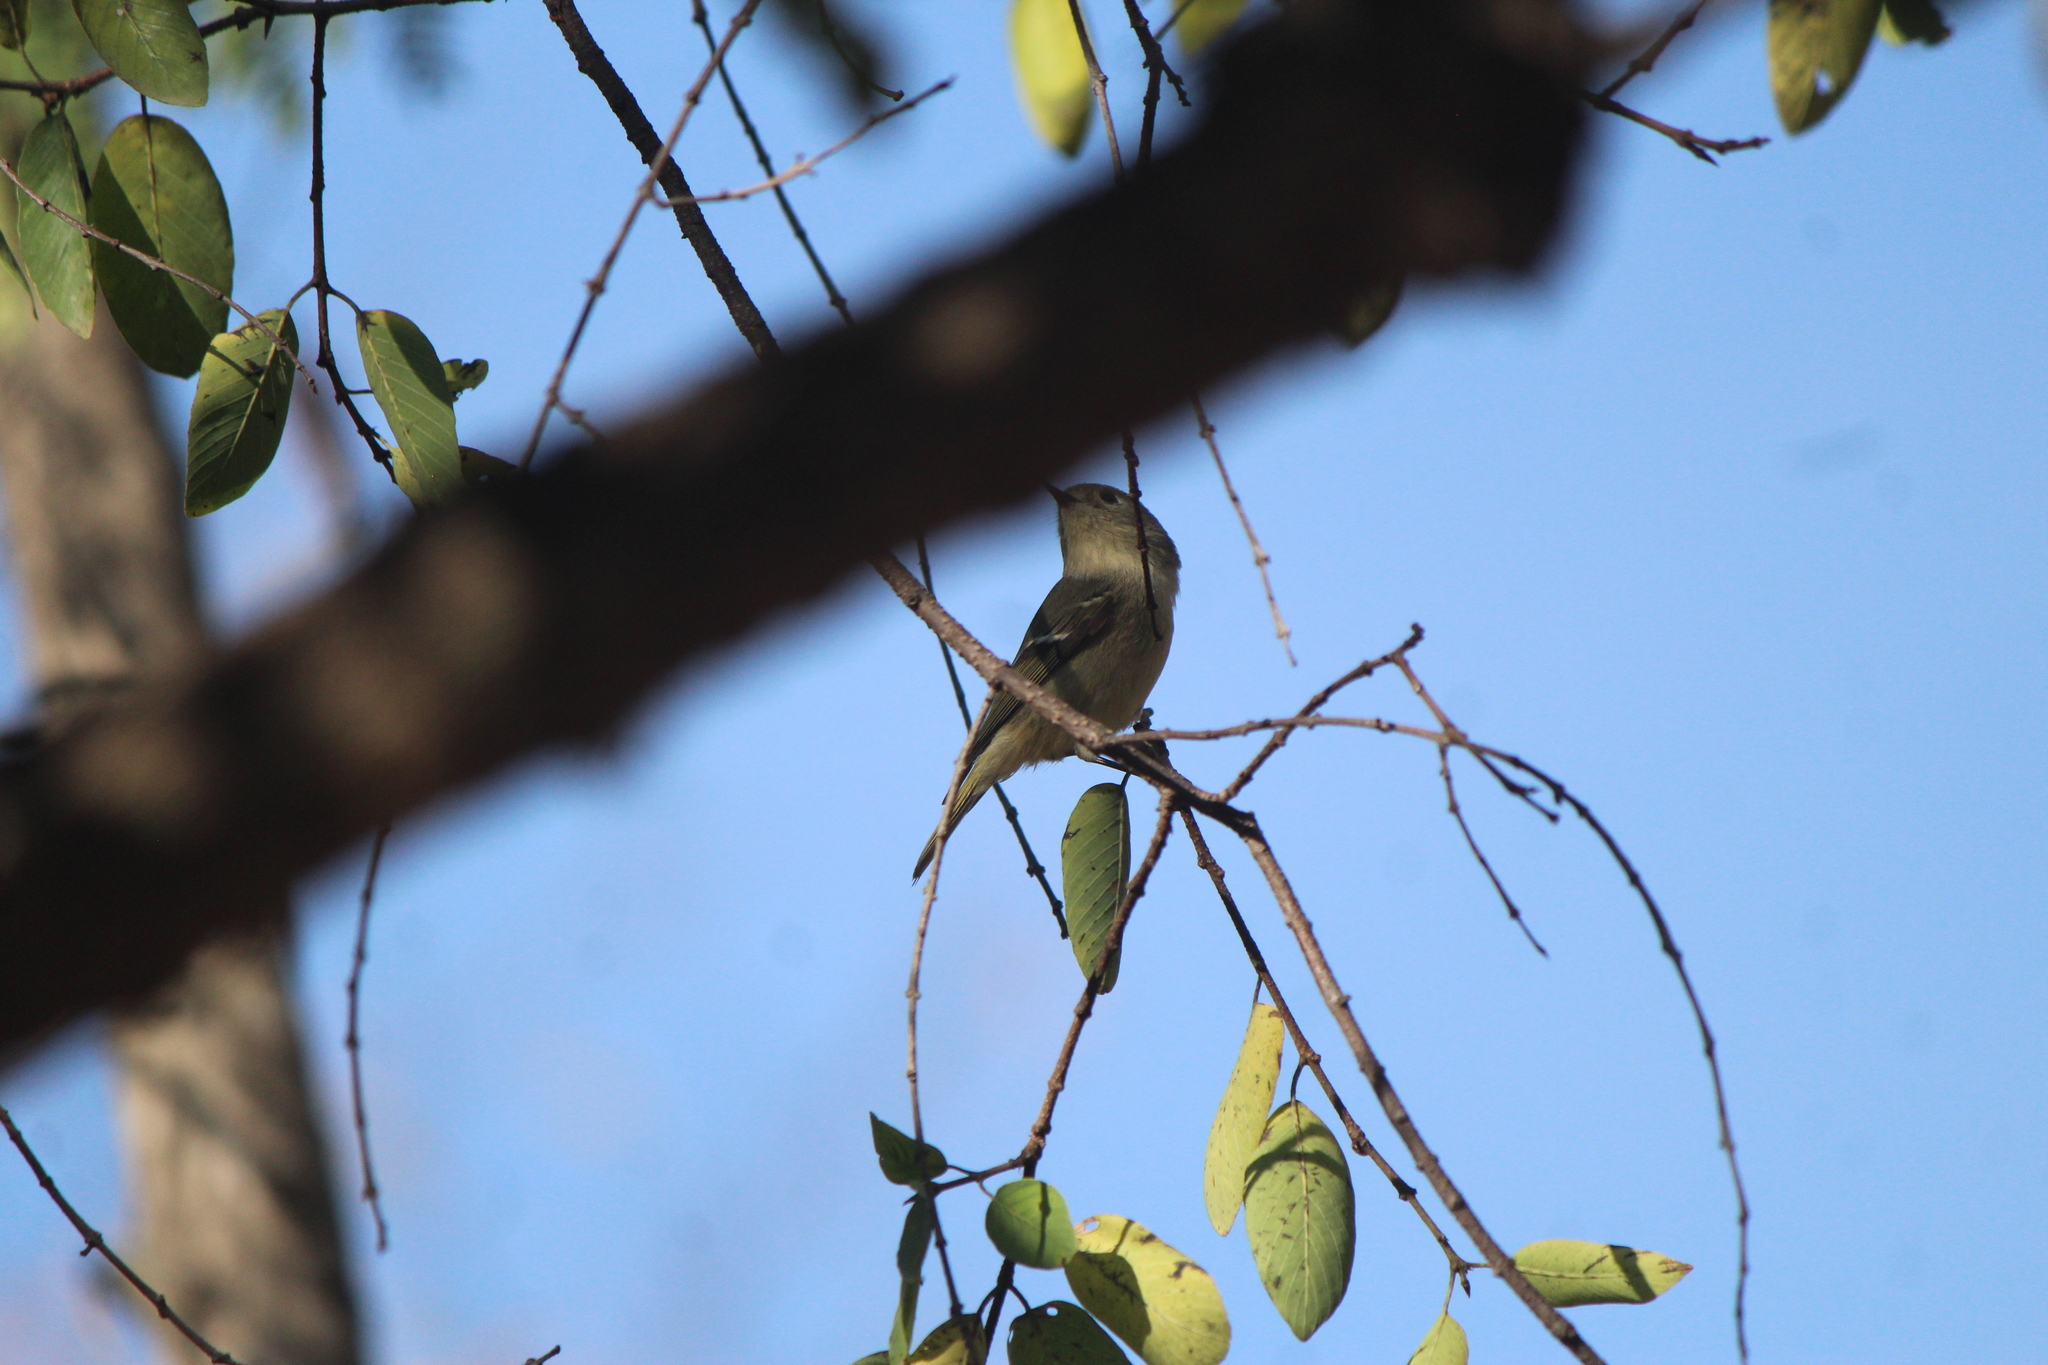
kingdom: Animalia
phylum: Chordata
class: Aves
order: Passeriformes
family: Regulidae
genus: Regulus
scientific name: Regulus calendula
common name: Ruby-crowned kinglet
